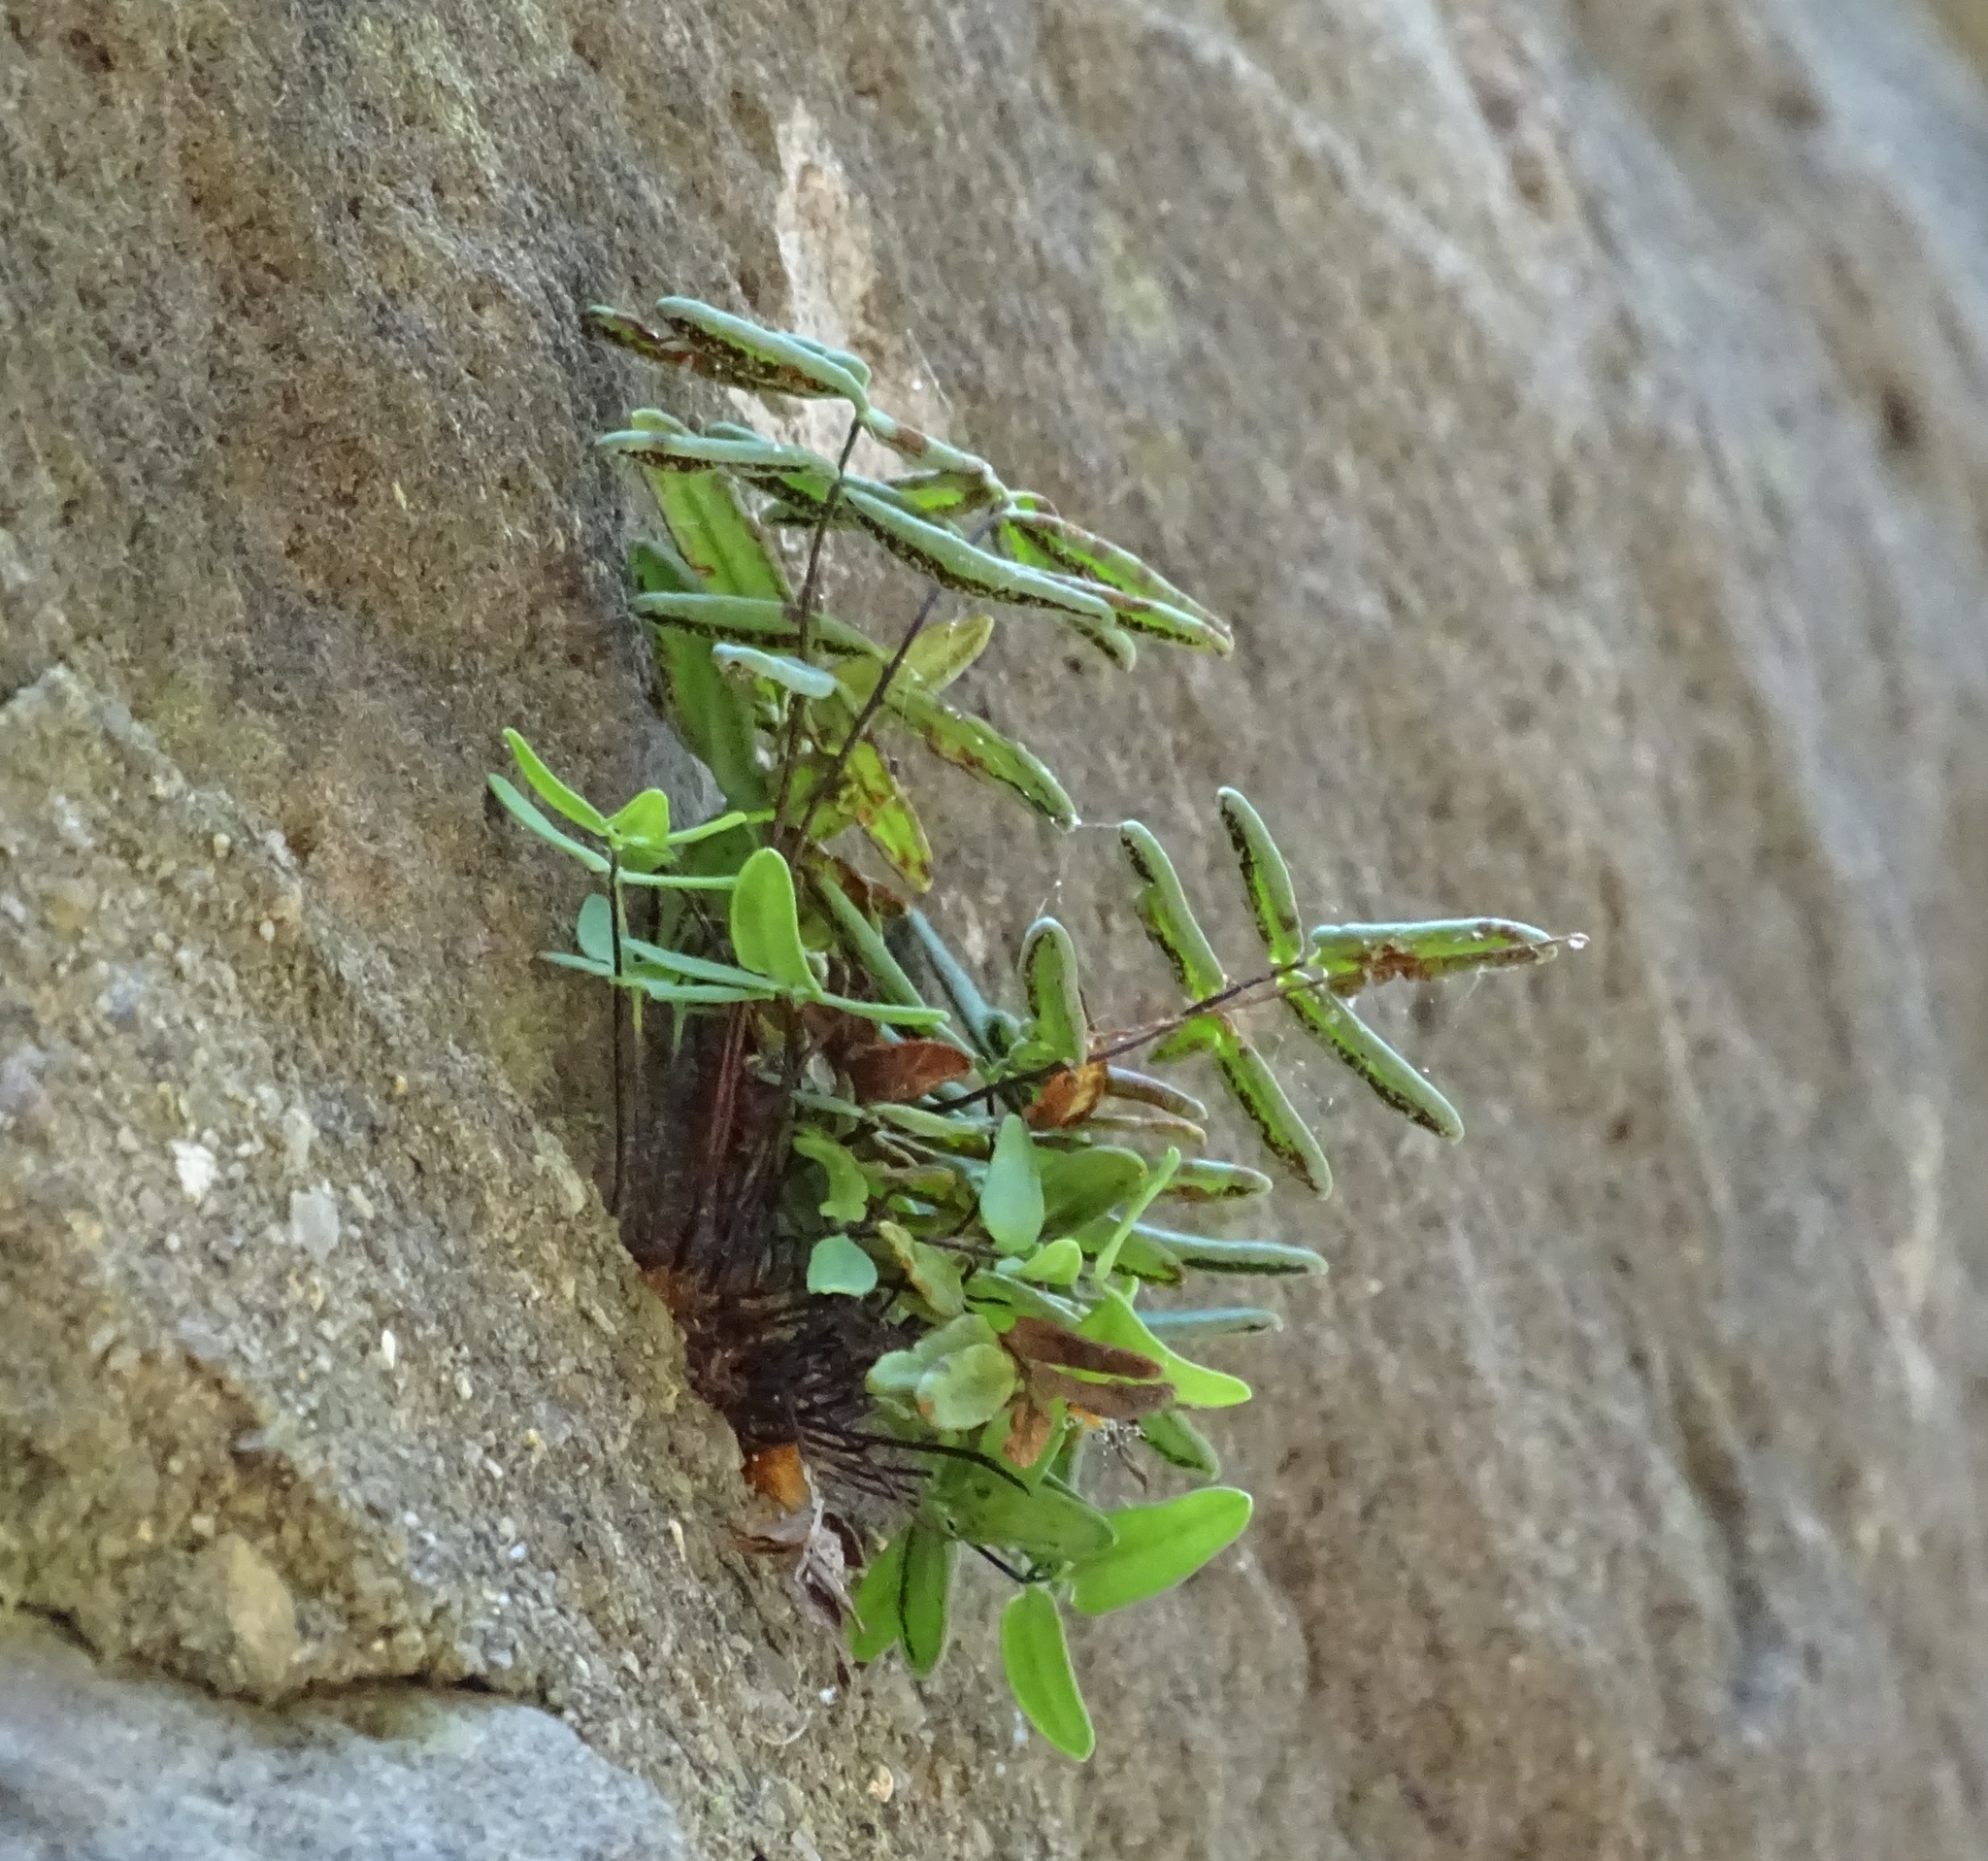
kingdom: Plantae
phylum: Tracheophyta
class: Polypodiopsida
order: Polypodiales
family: Pteridaceae
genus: Pellaea
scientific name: Pellaea glabella
